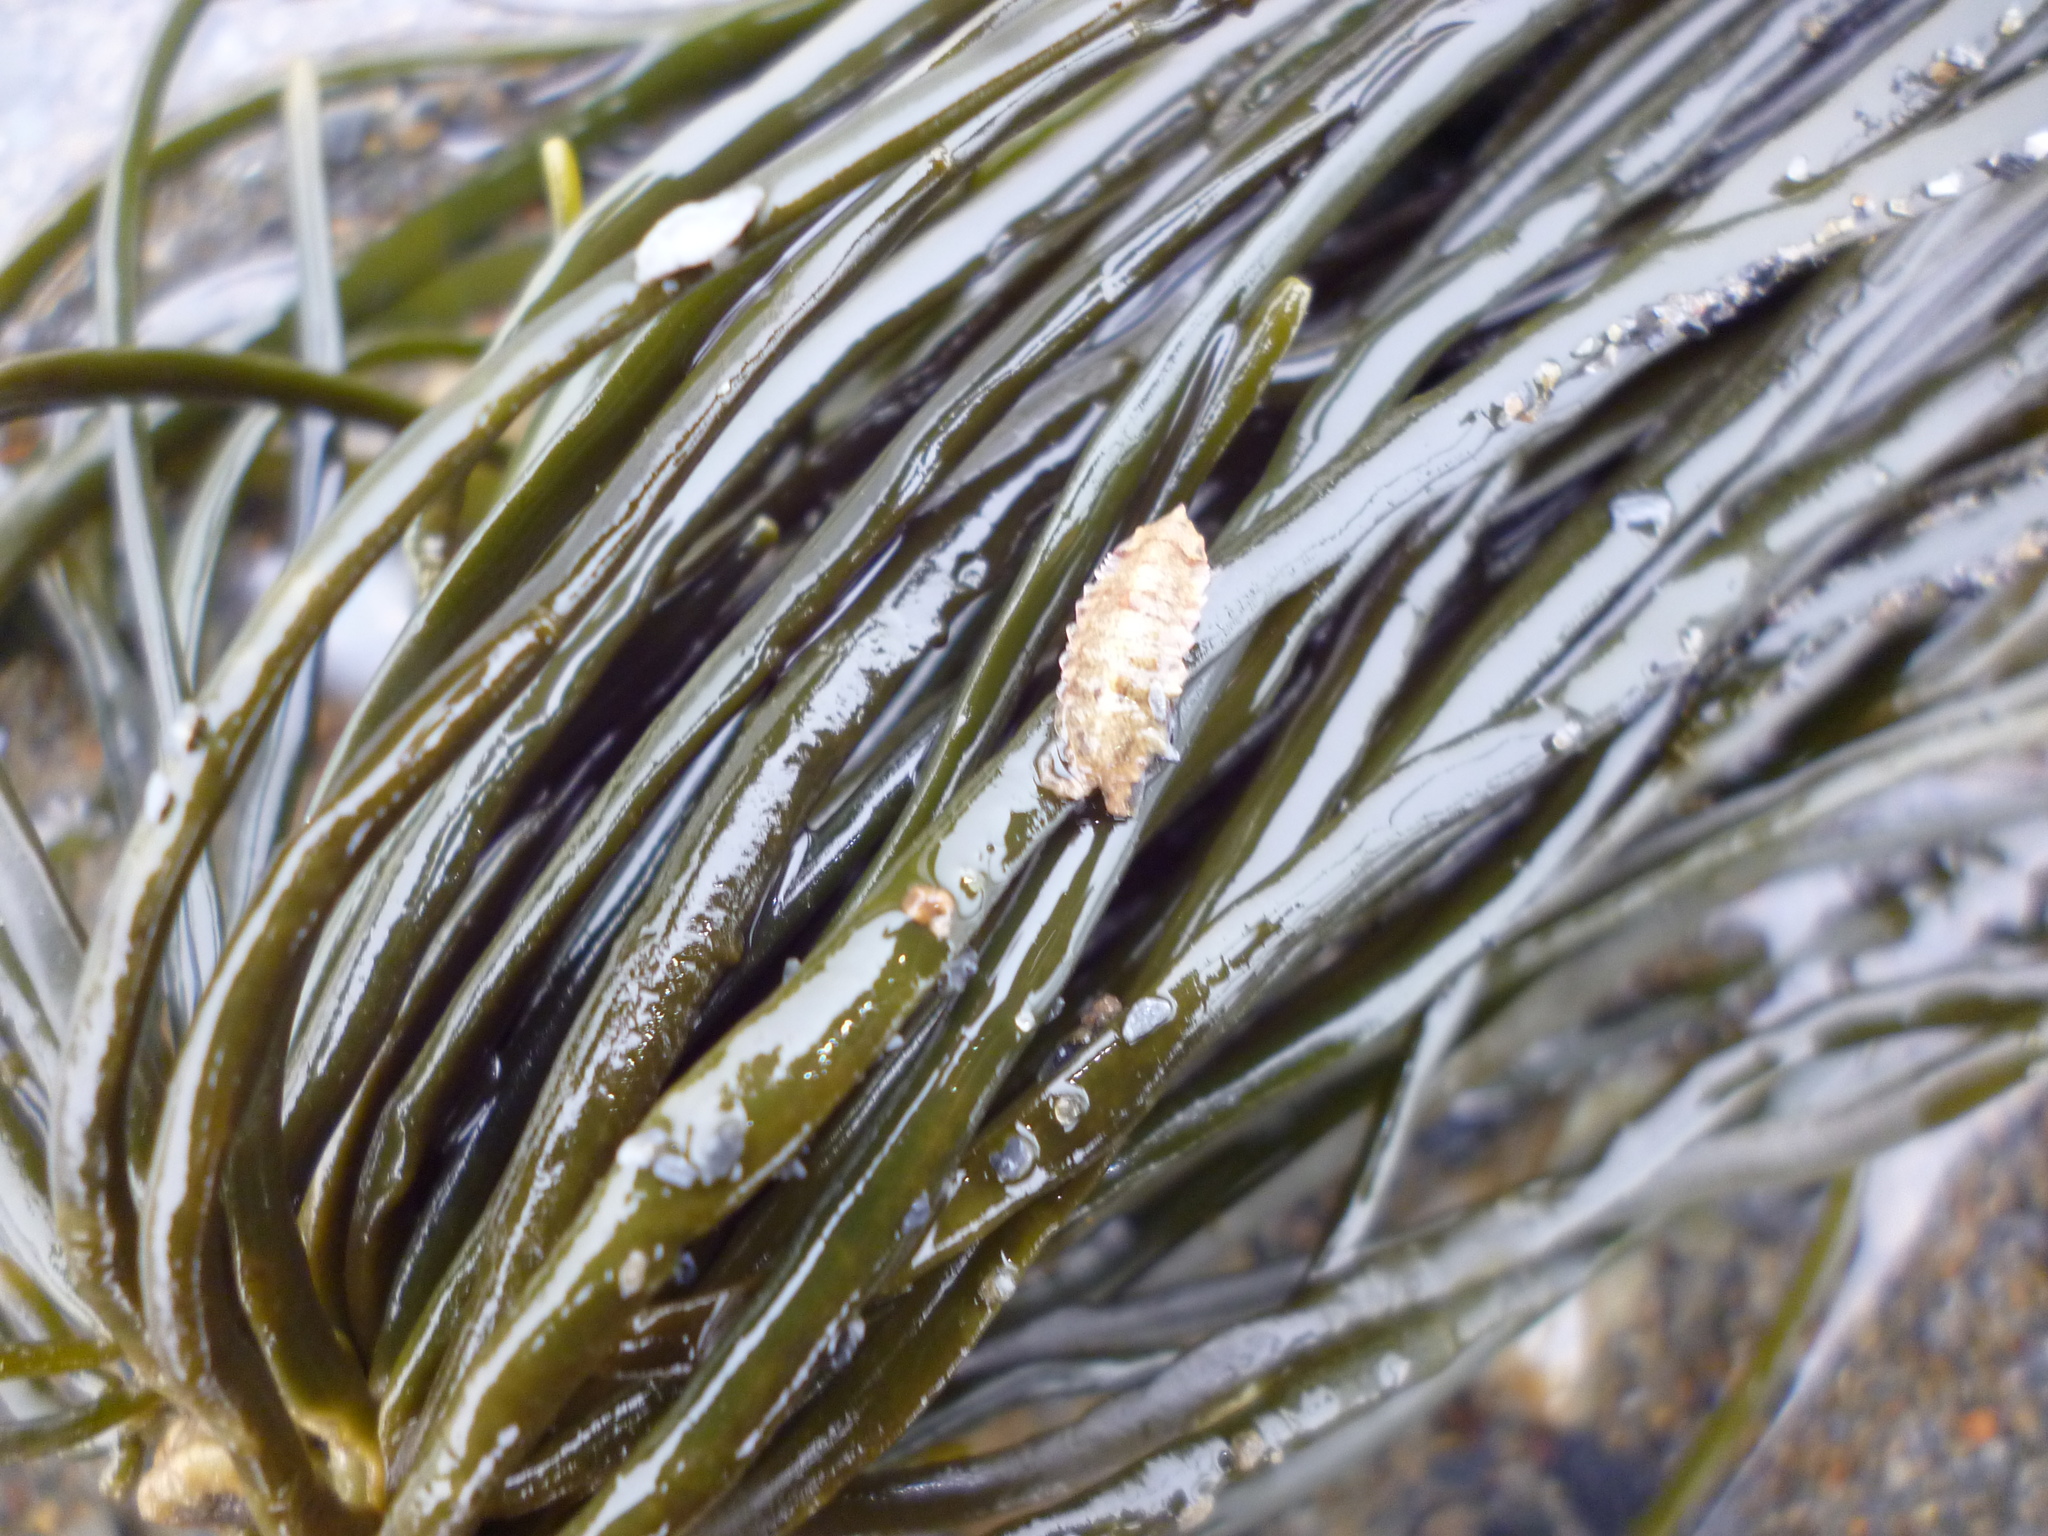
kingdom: Chromista
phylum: Ochrophyta
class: Phaeophyceae
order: Fucales
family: Fucaceae
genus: Ascophyllum
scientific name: Ascophyllum nodosum
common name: Knotted wrack
